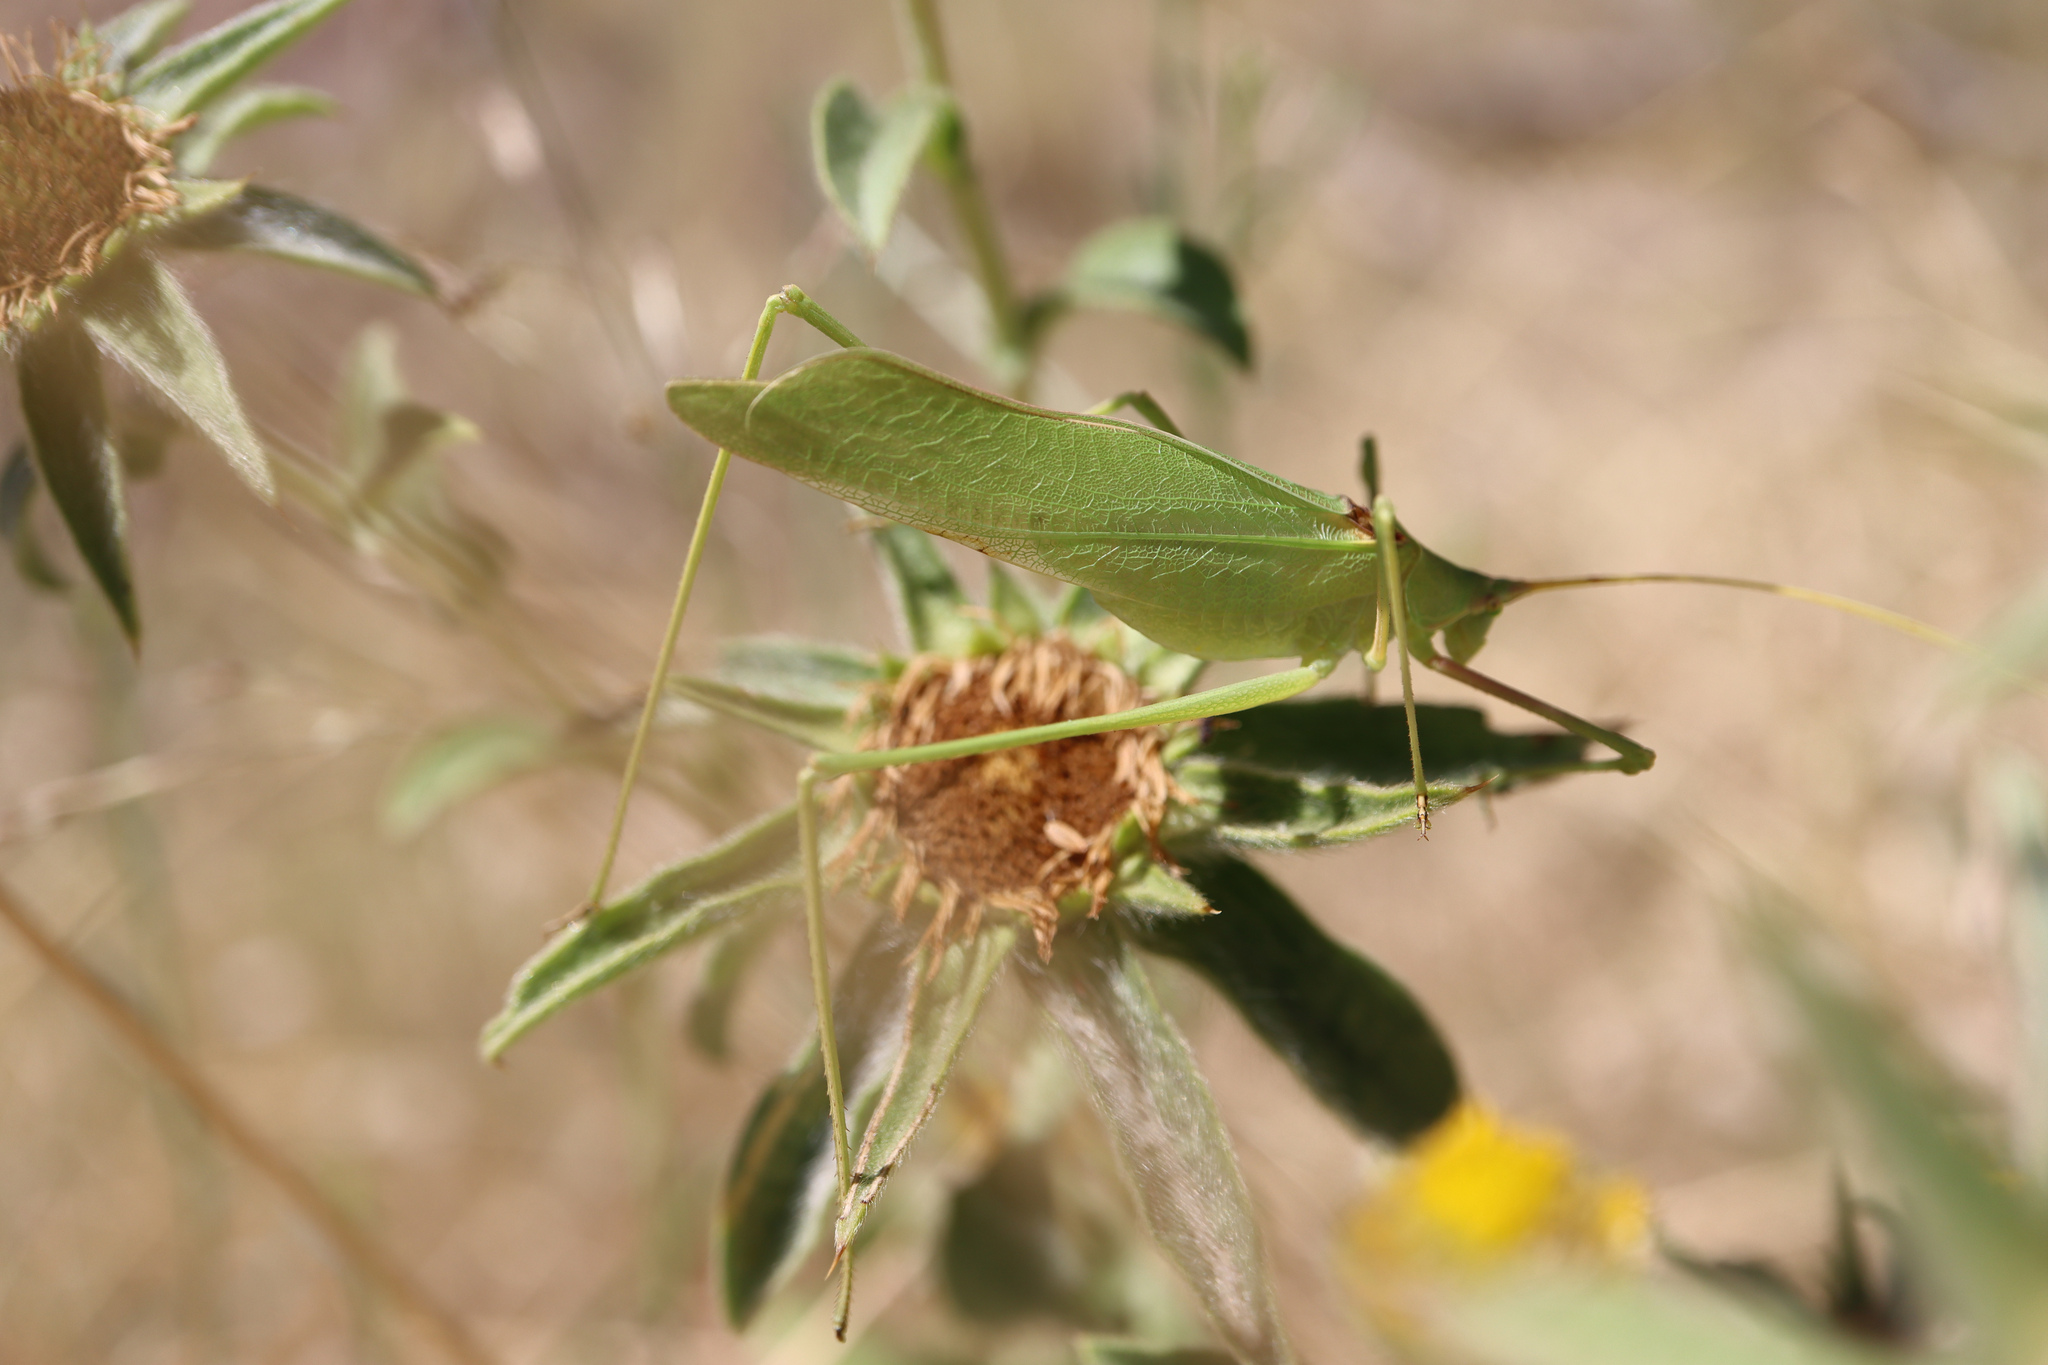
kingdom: Animalia
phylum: Arthropoda
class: Insecta
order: Orthoptera
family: Tettigoniidae
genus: Acrometopa
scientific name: Acrometopa macropoda
